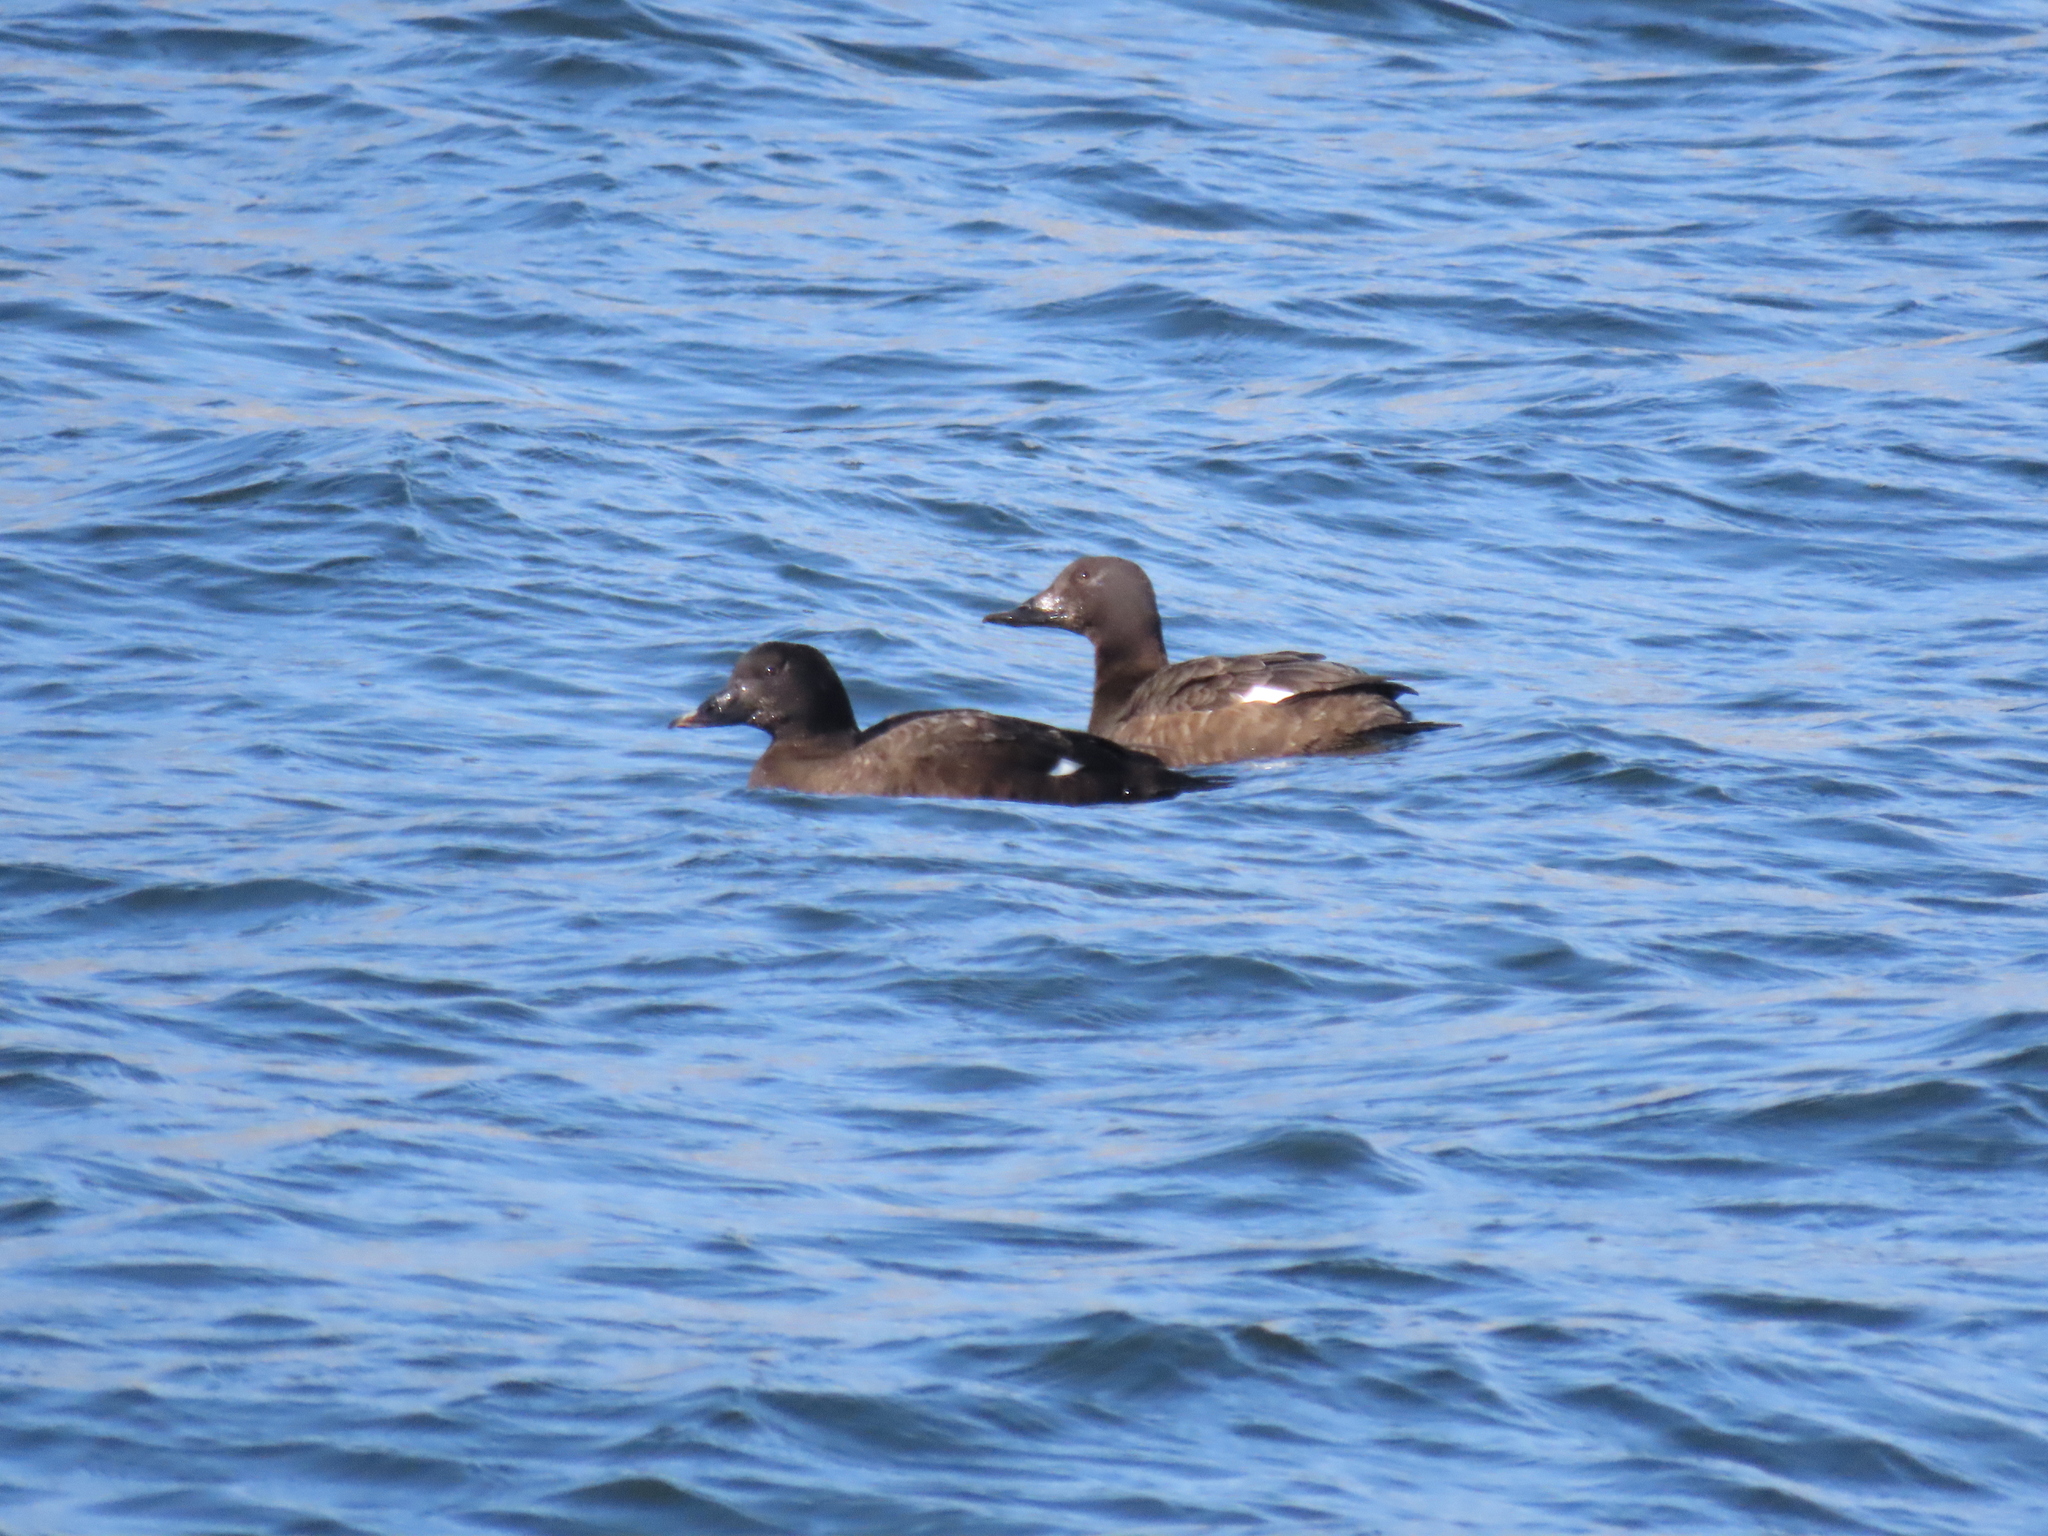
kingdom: Animalia
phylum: Chordata
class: Aves
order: Anseriformes
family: Anatidae
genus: Melanitta
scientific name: Melanitta deglandi
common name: White-winged scoter
